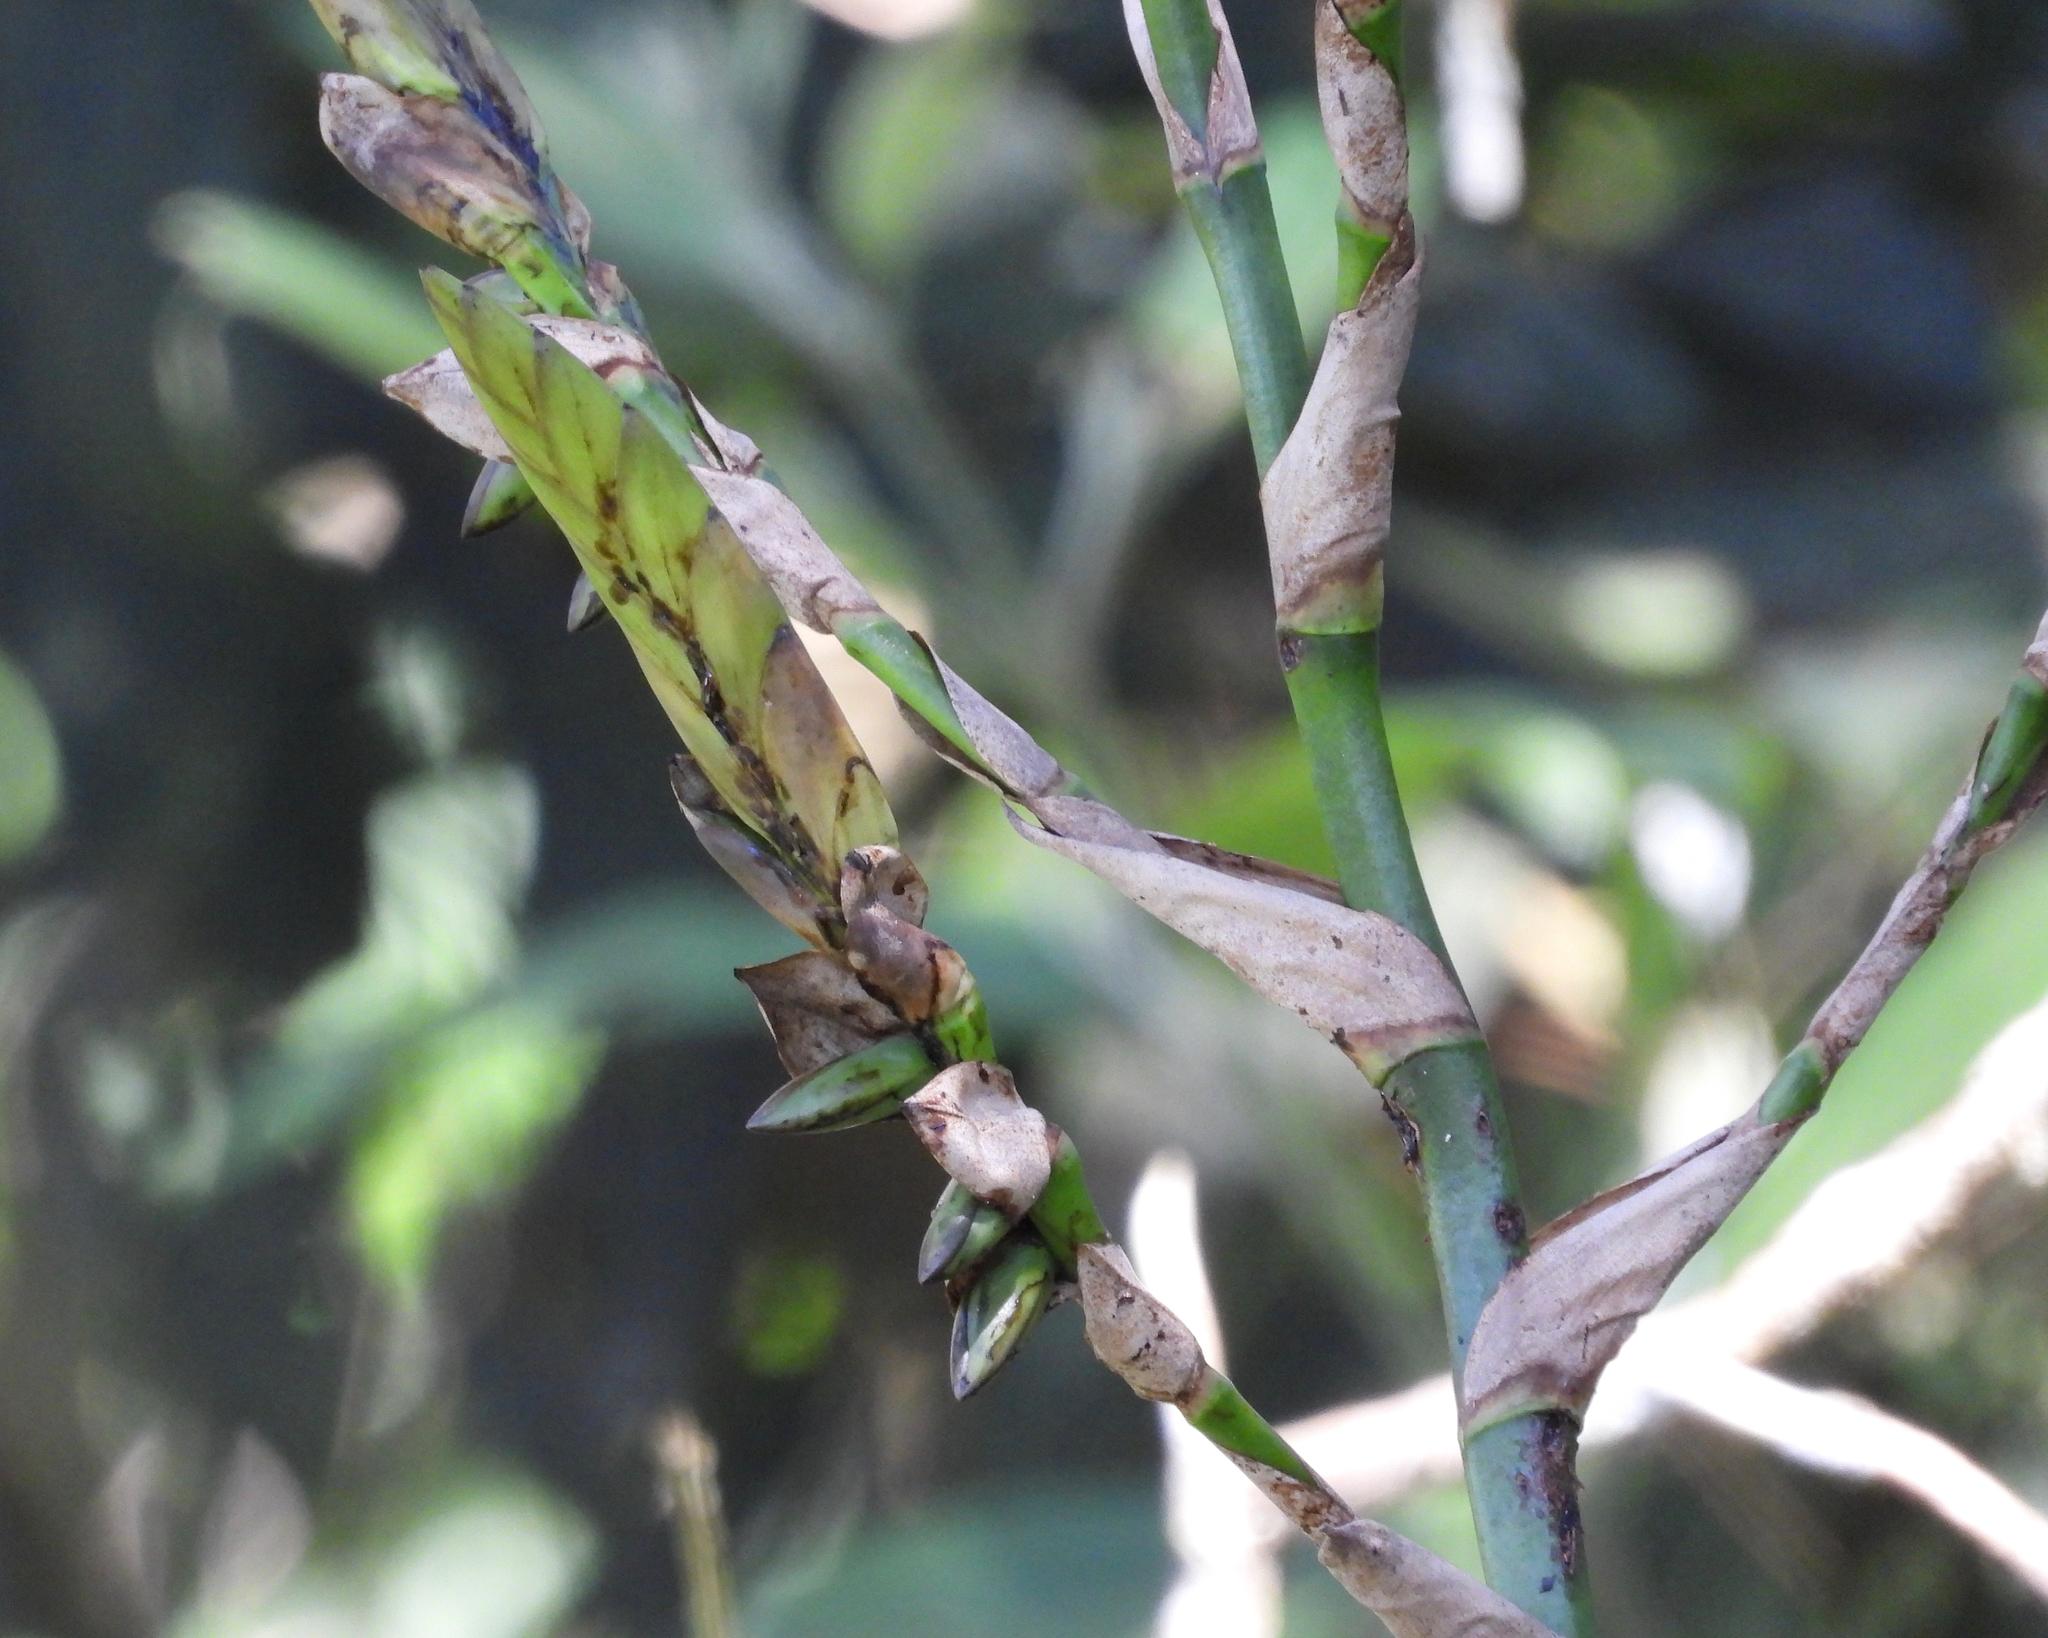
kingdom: Plantae
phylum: Tracheophyta
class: Liliopsida
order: Poales
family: Bromeliaceae
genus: Werauhia
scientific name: Werauhia werckleana
